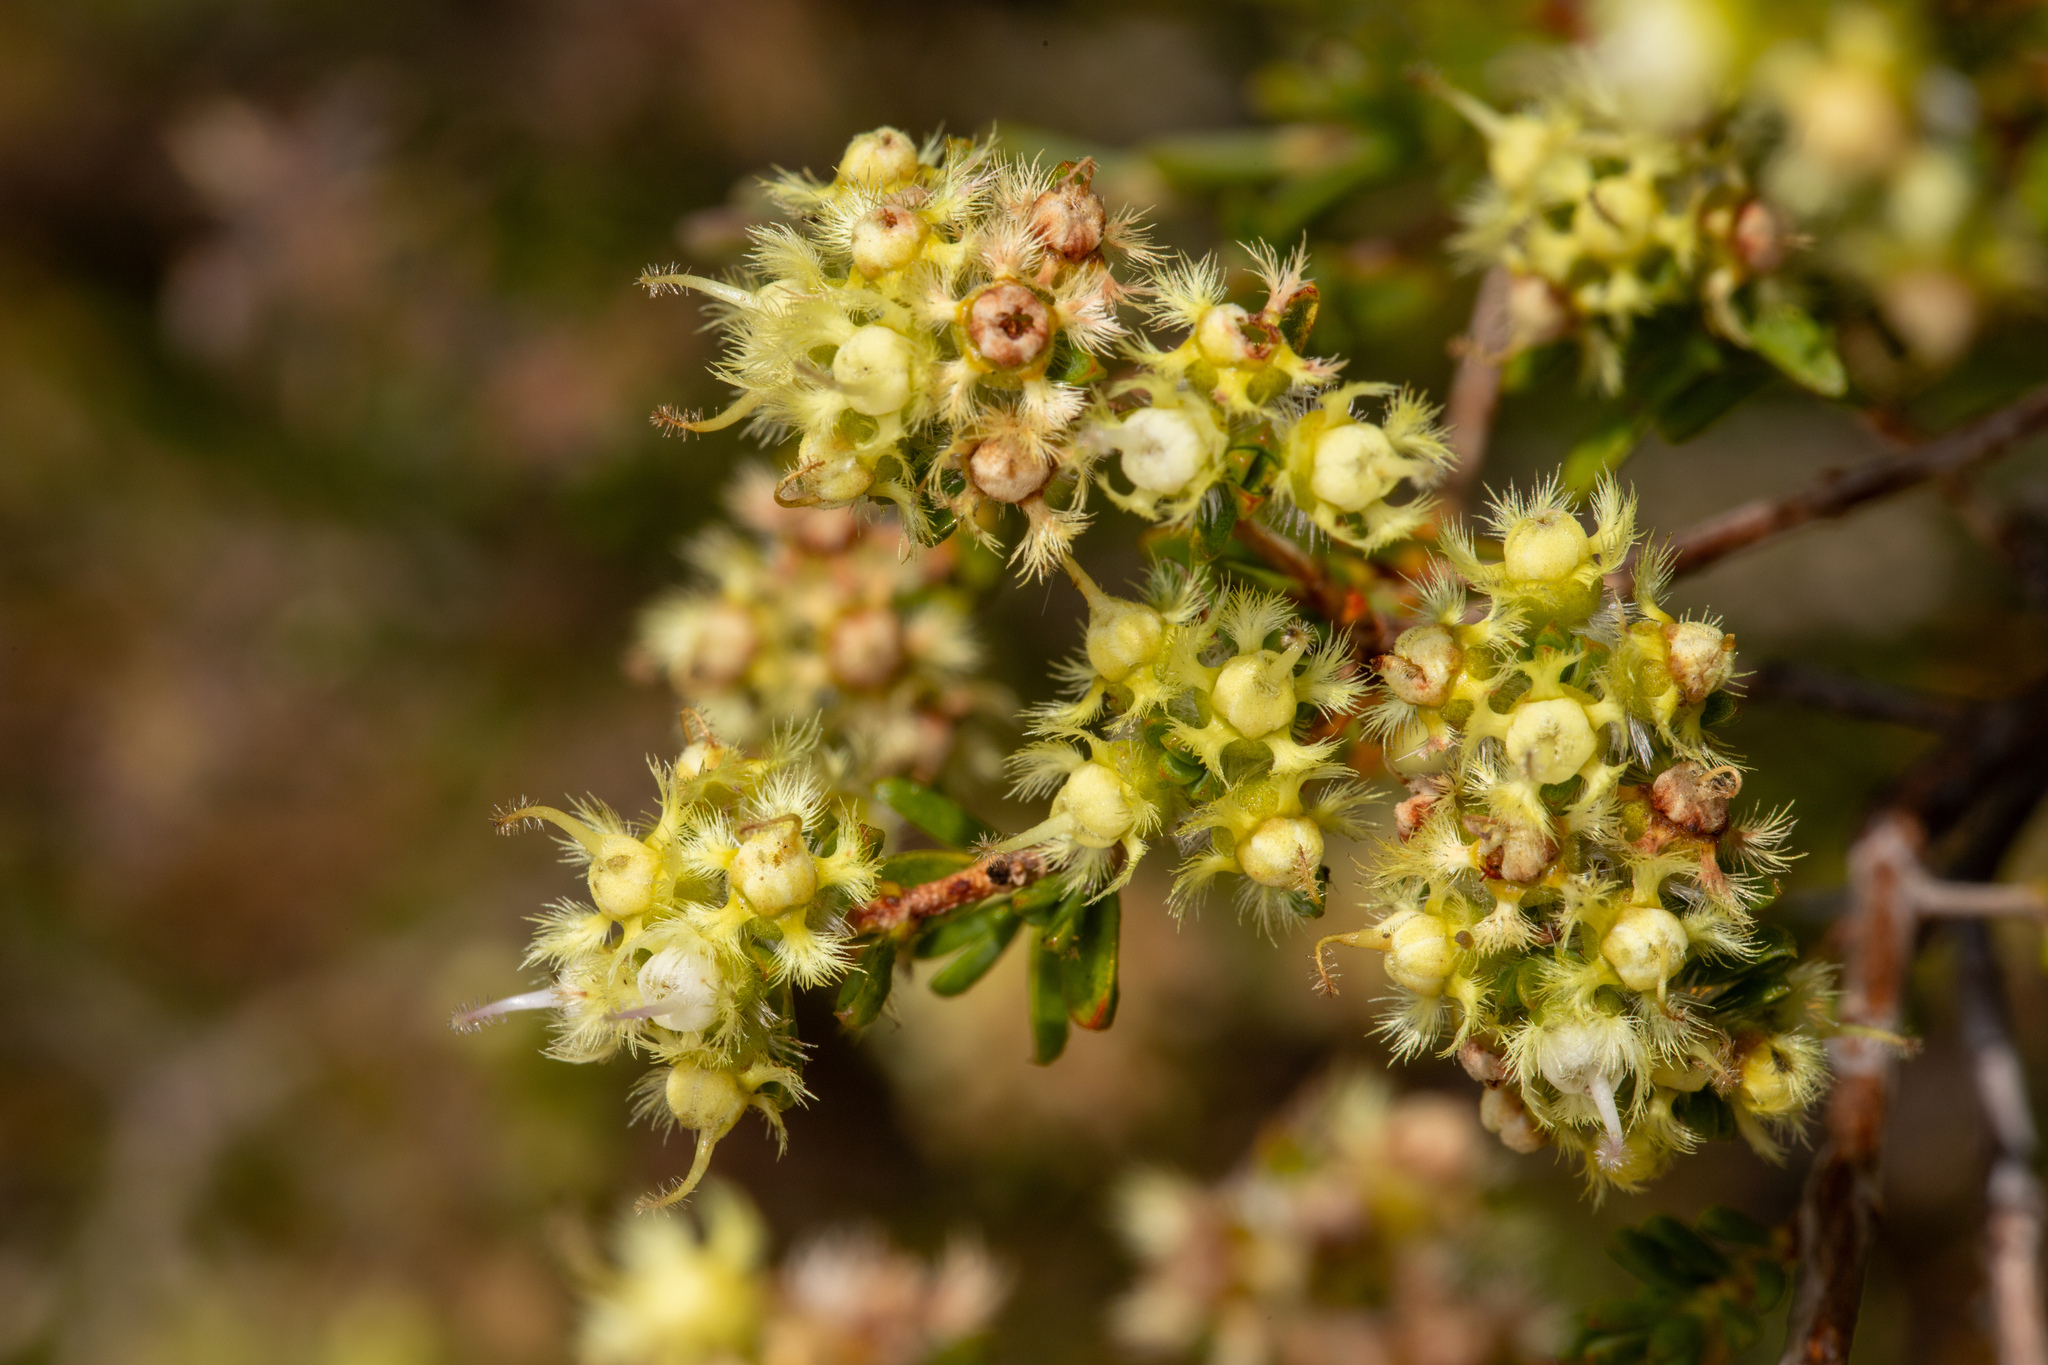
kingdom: Plantae
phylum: Tracheophyta
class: Magnoliopsida
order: Myrtales
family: Myrtaceae
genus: Verticordia
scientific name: Verticordia densiflora
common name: Compact feather-flower
